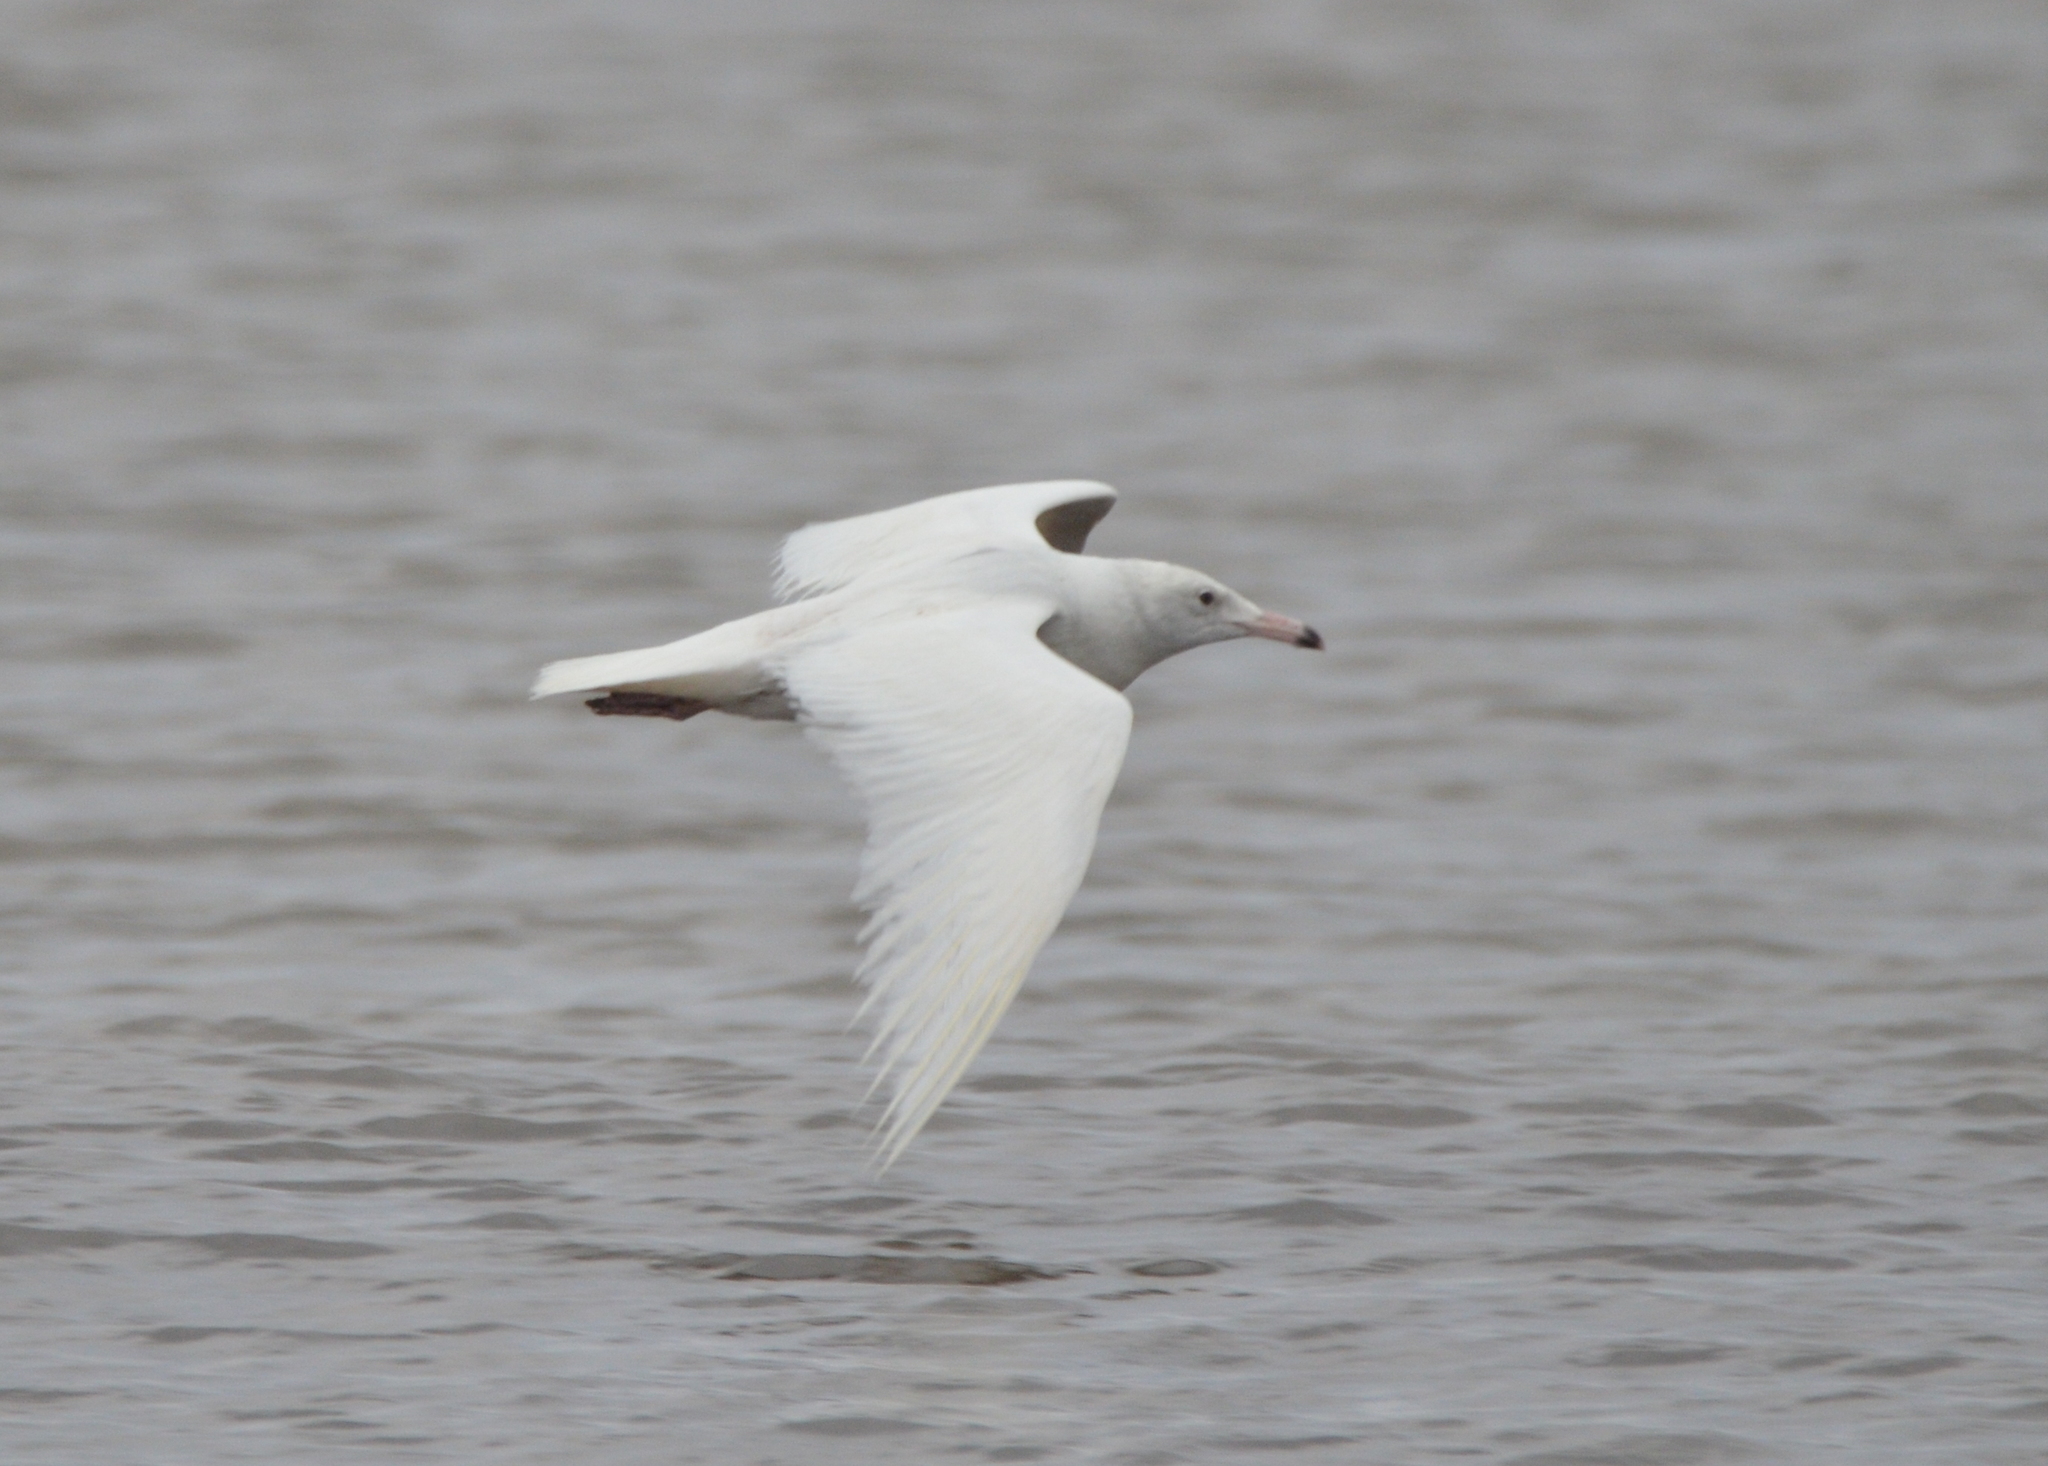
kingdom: Animalia
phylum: Chordata
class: Aves
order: Charadriiformes
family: Laridae
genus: Larus
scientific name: Larus hyperboreus
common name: Glaucous gull
